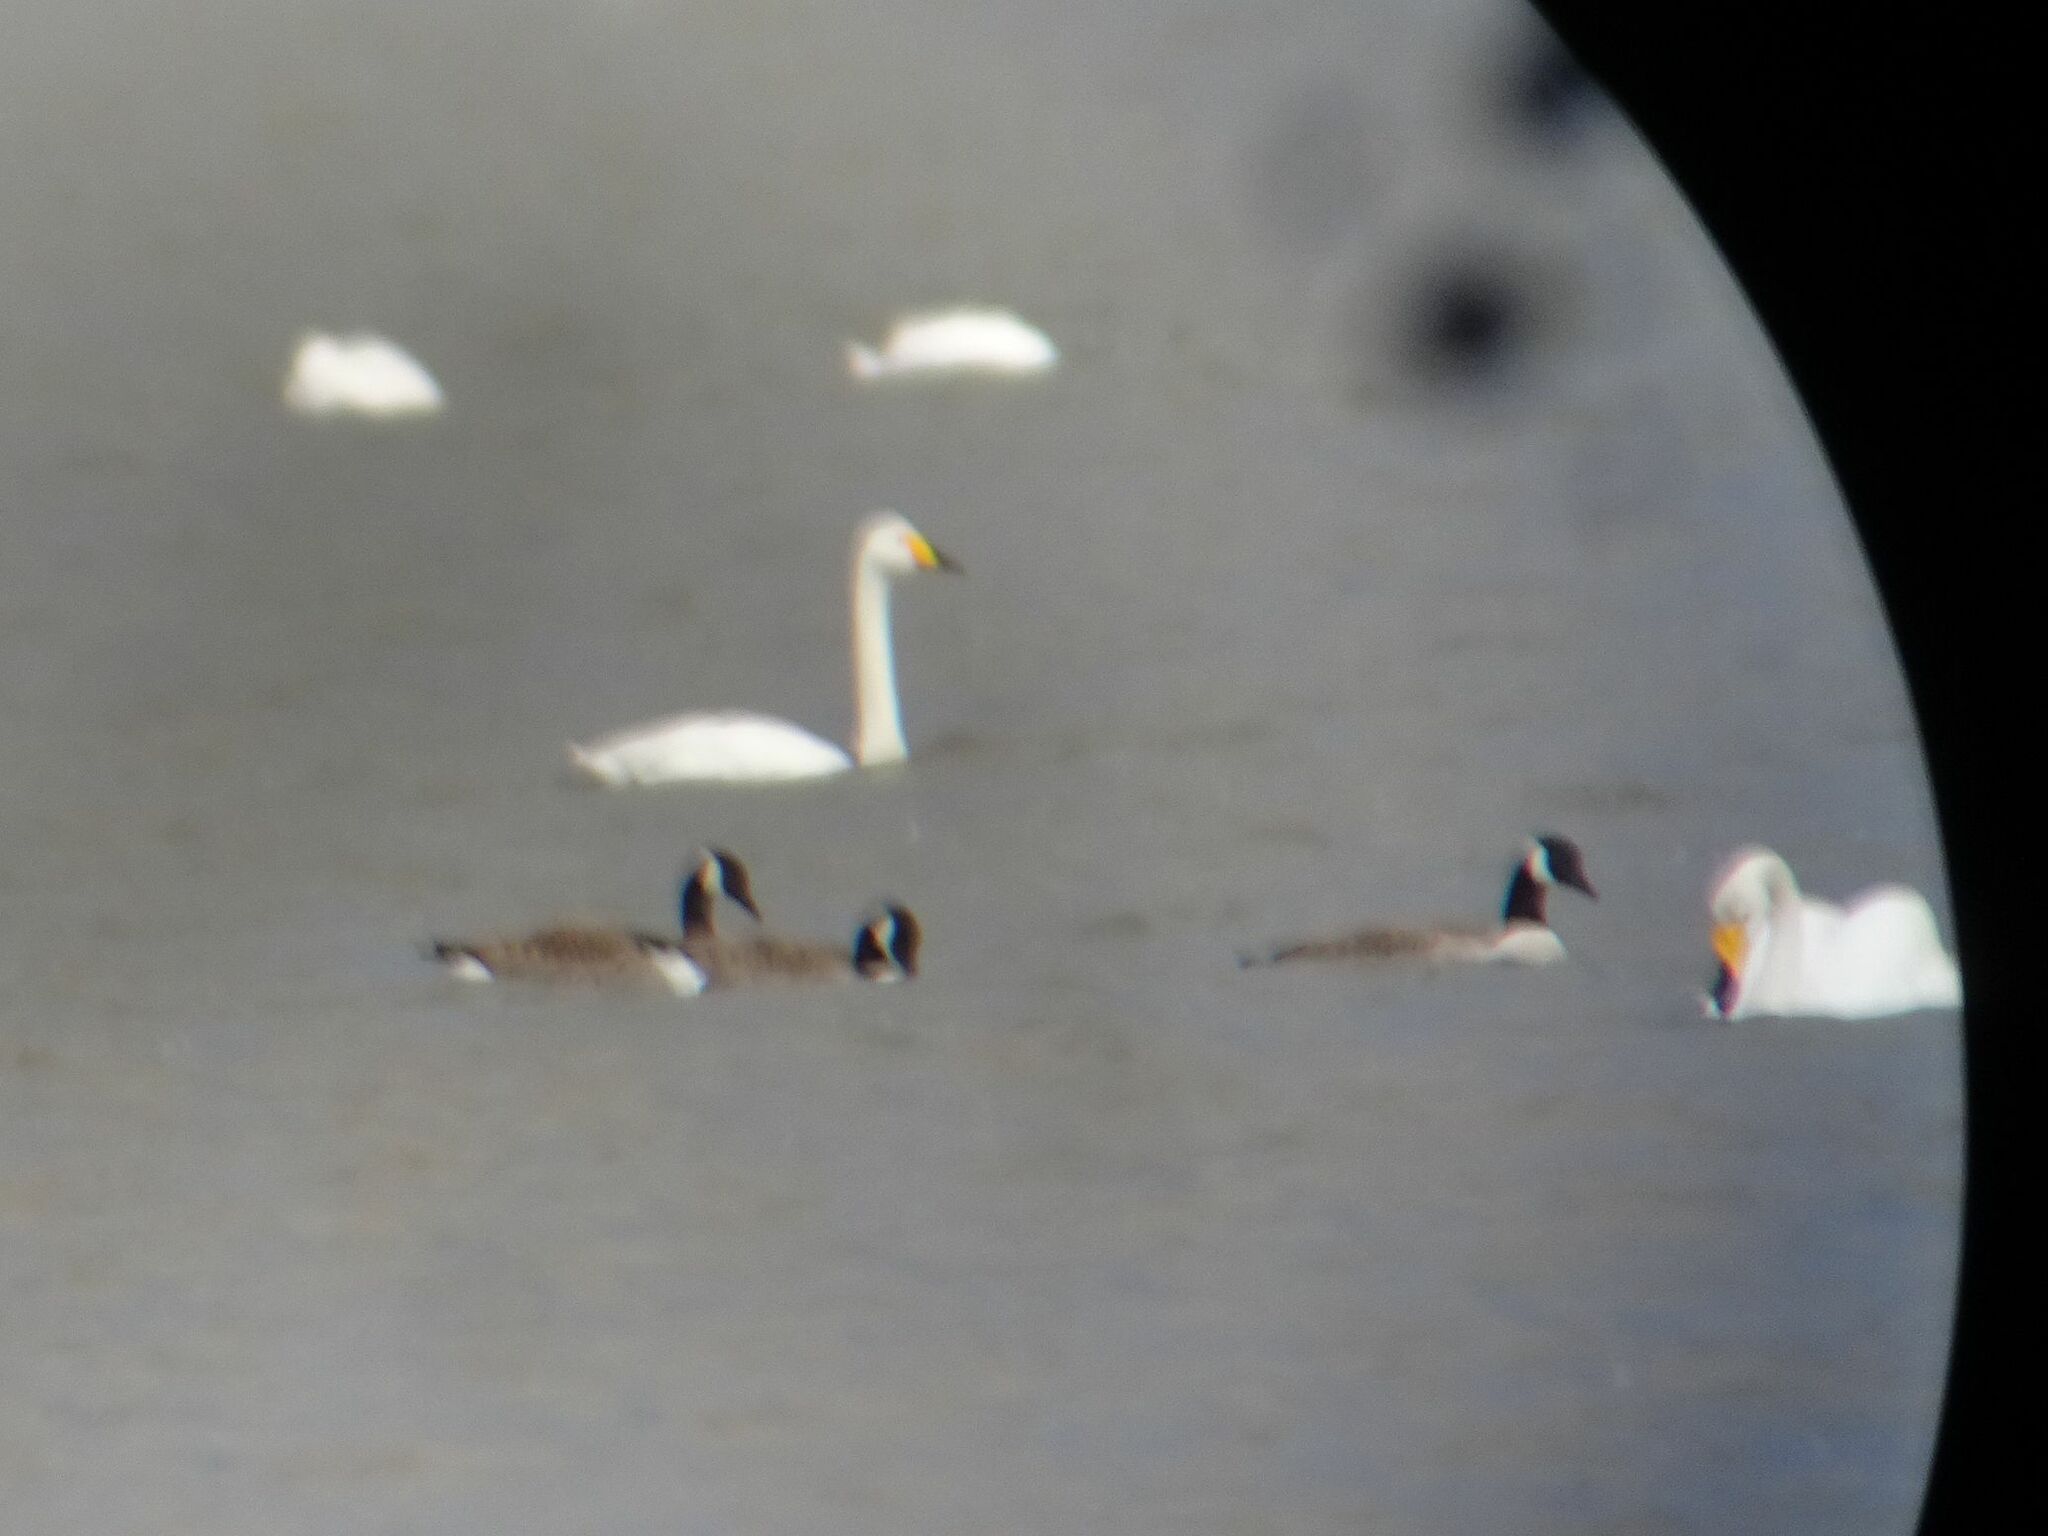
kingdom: Animalia
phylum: Chordata
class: Aves
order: Anseriformes
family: Anatidae
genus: Cygnus
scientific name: Cygnus cygnus
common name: Whooper swan
